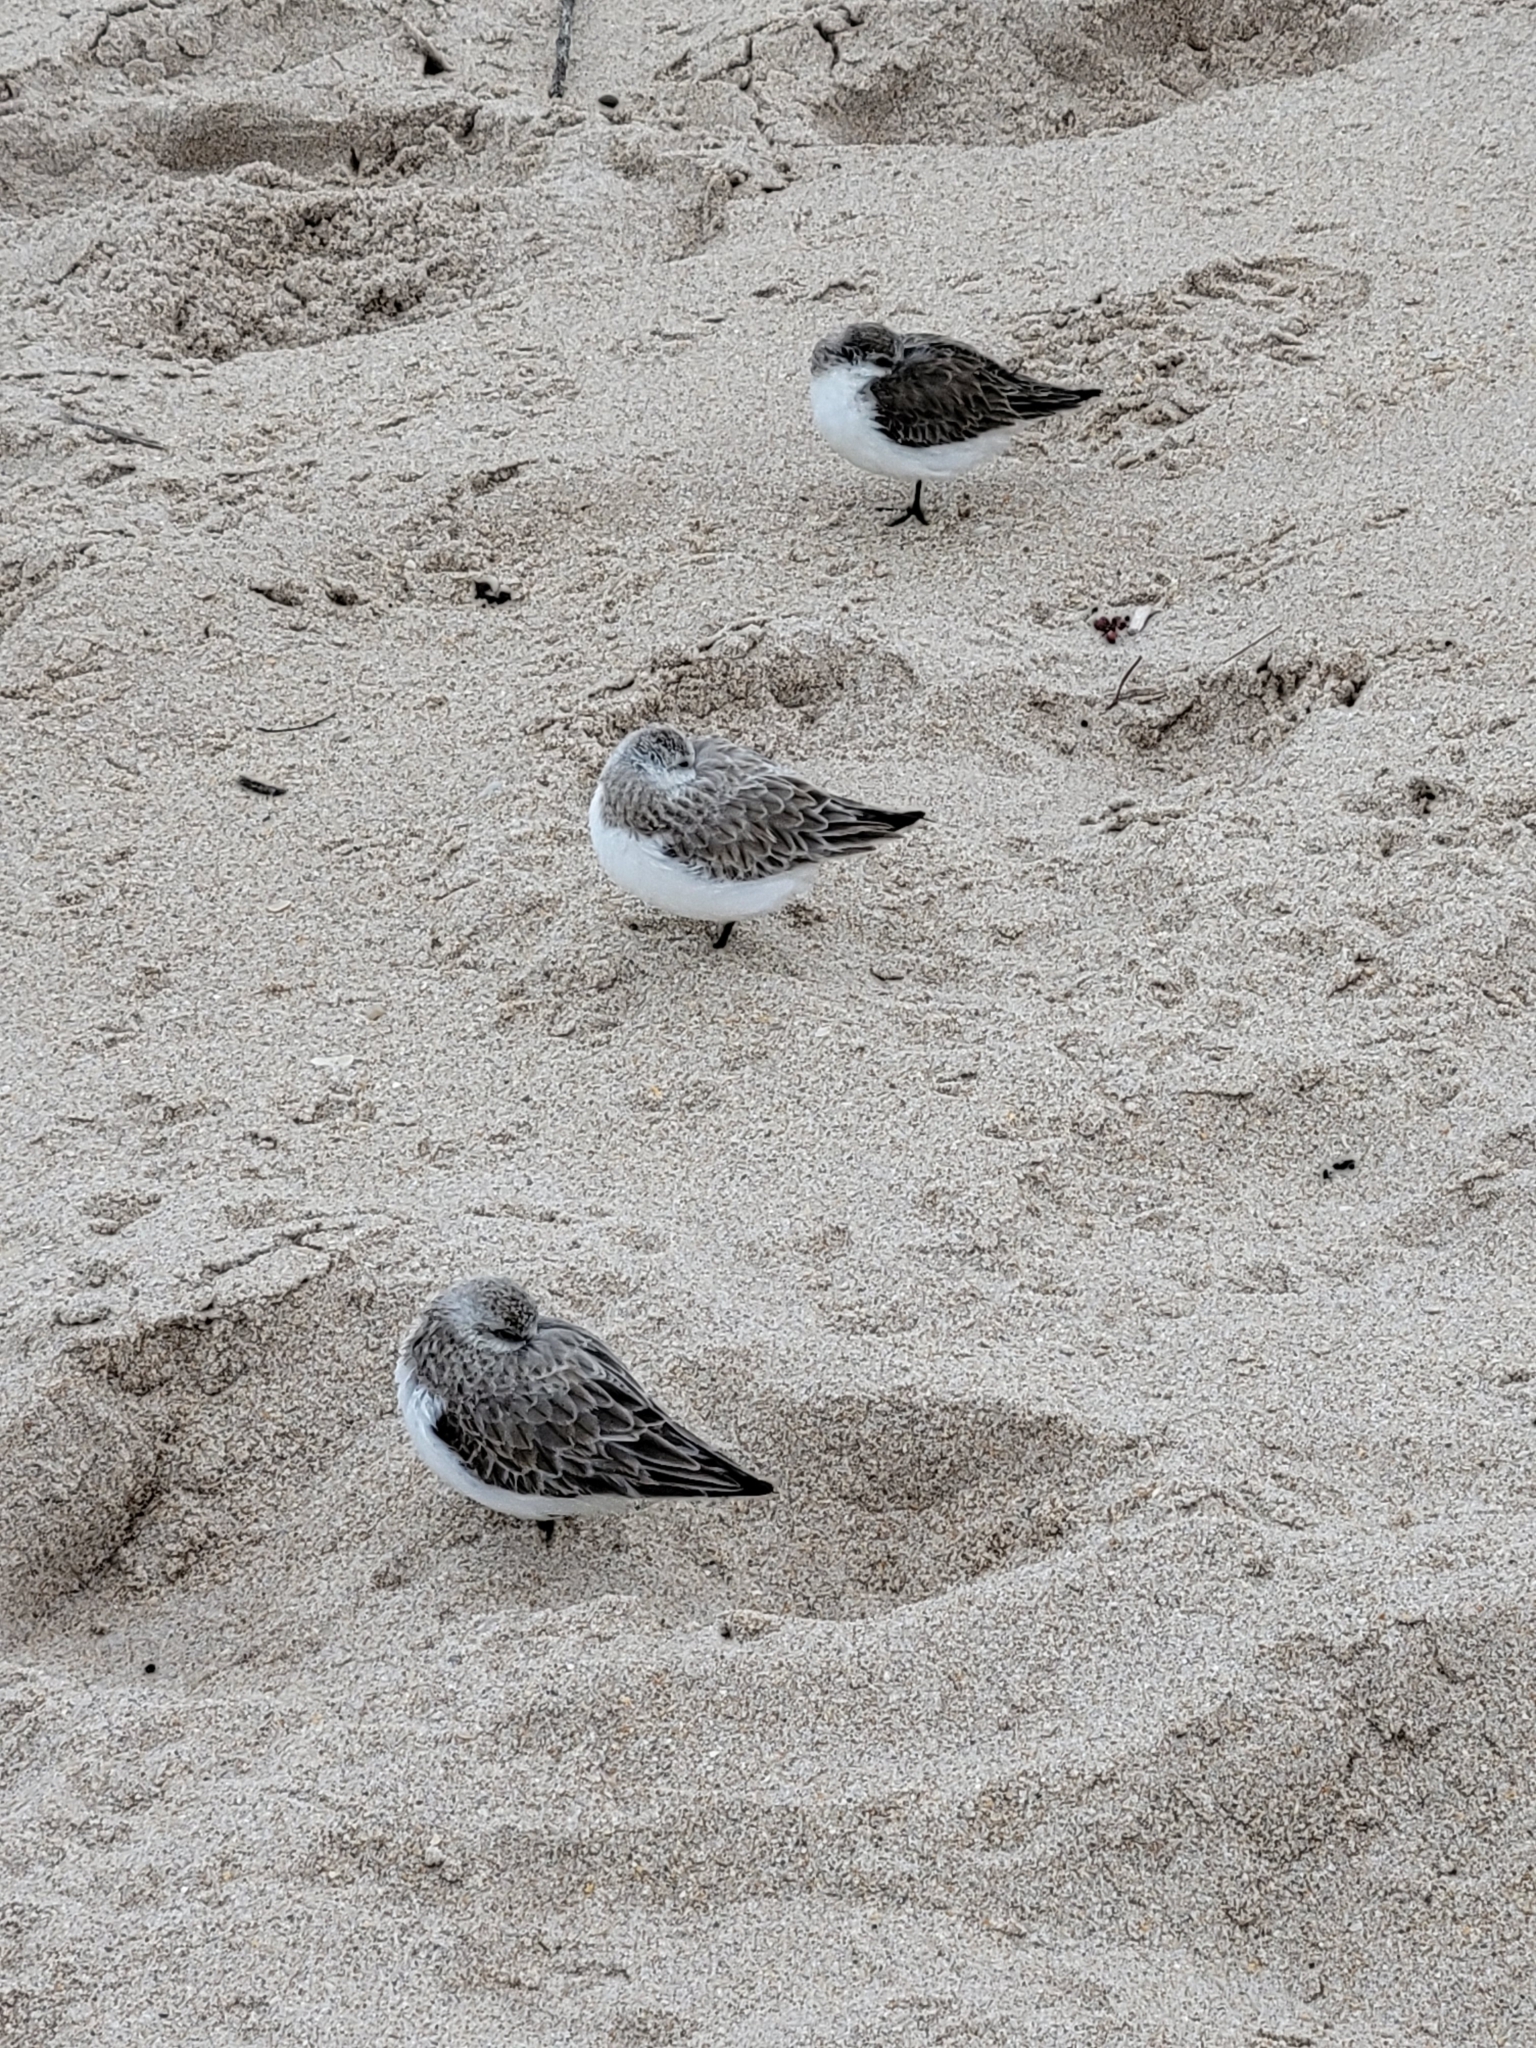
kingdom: Animalia
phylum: Chordata
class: Aves
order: Charadriiformes
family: Scolopacidae
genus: Calidris
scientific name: Calidris alba
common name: Sanderling
